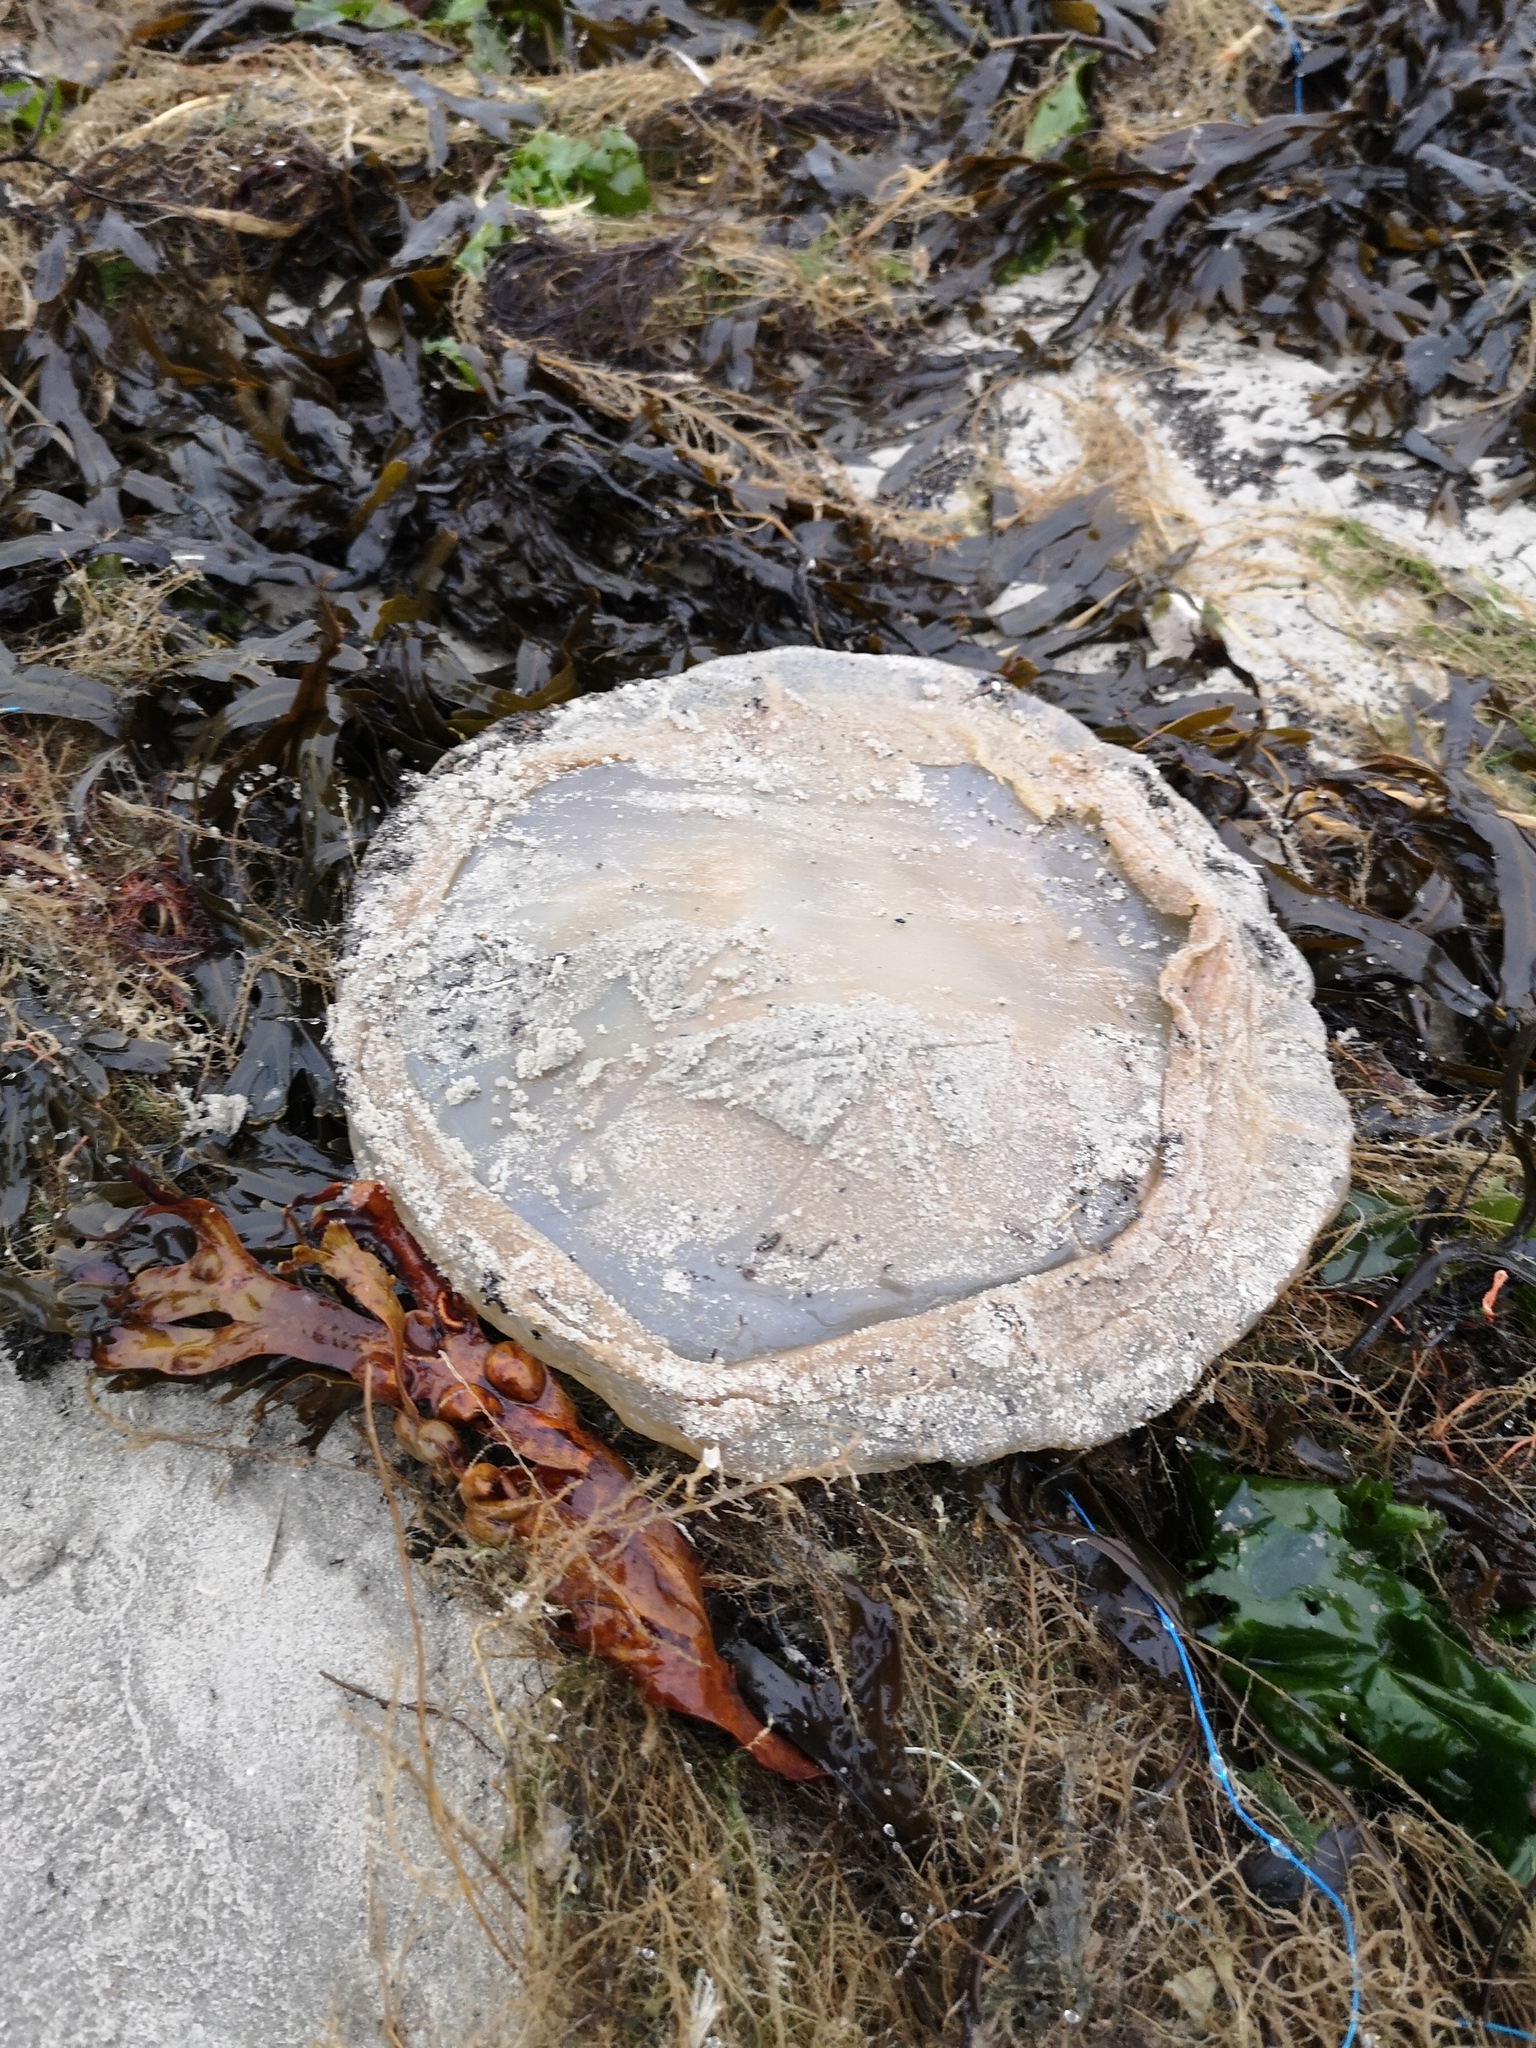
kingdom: Animalia
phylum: Cnidaria
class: Scyphozoa
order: Rhizostomeae
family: Rhizostomatidae
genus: Rhizostoma
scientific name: Rhizostoma octopus
